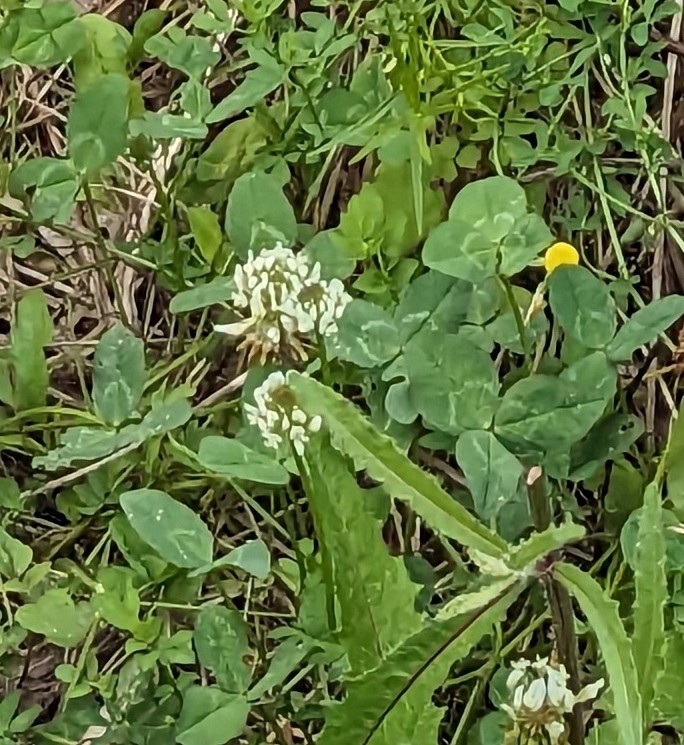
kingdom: Plantae
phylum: Tracheophyta
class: Magnoliopsida
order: Fabales
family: Fabaceae
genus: Trifolium
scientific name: Trifolium repens
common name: White clover
